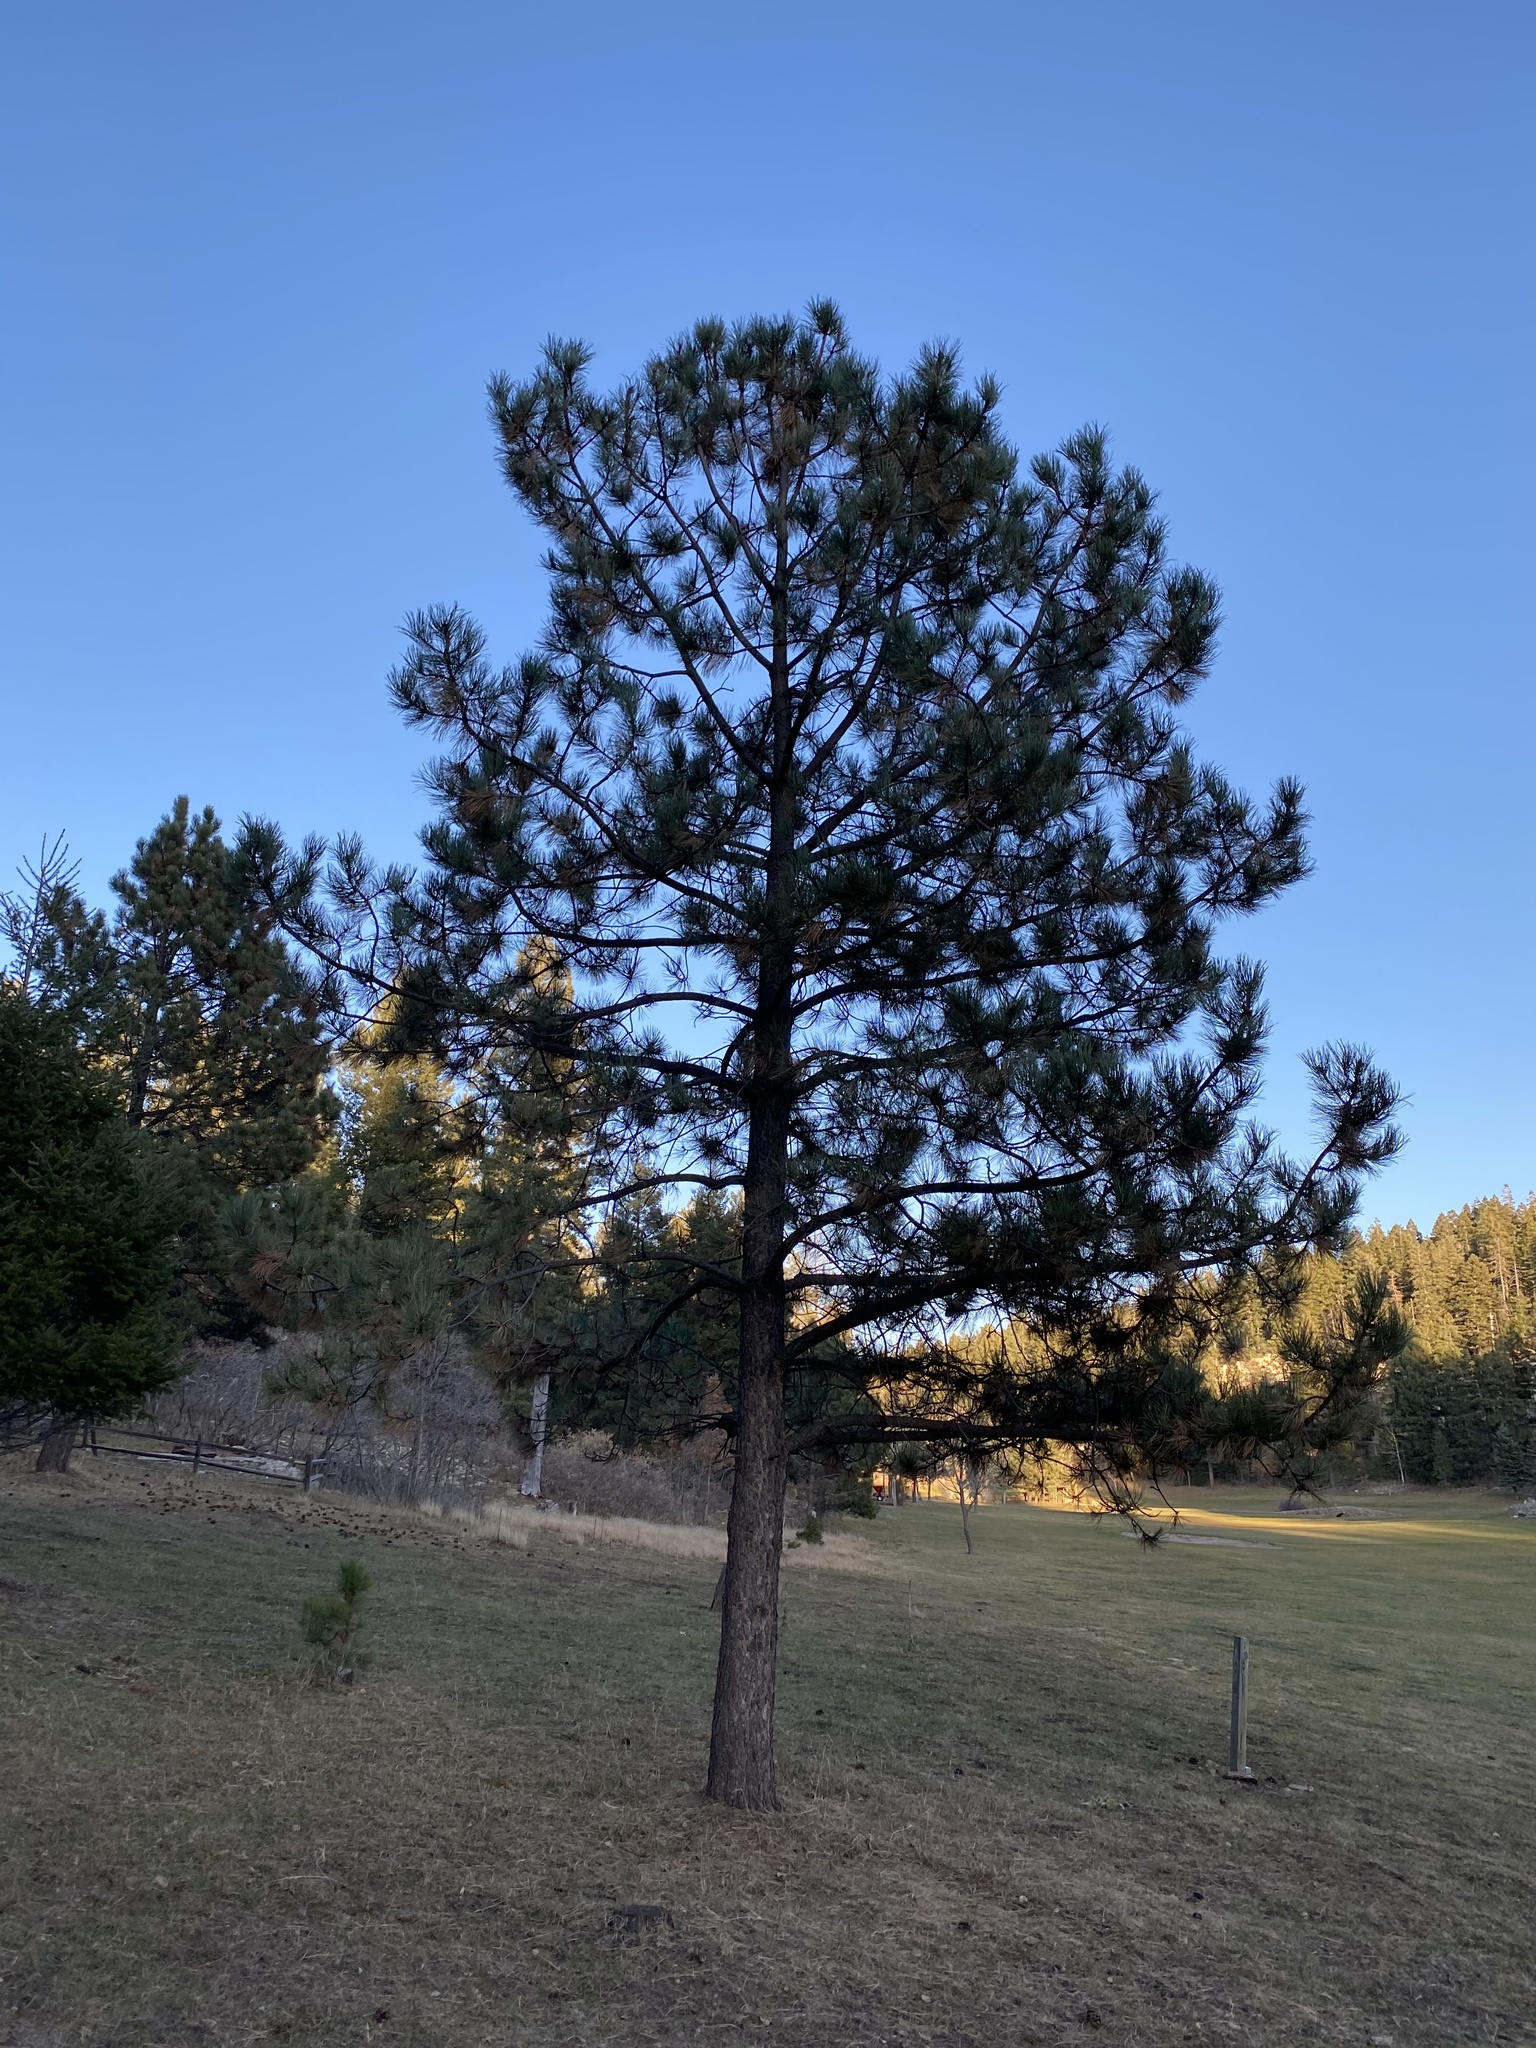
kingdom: Plantae
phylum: Tracheophyta
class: Pinopsida
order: Pinales
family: Pinaceae
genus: Pinus
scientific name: Pinus ponderosa
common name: Western yellow-pine
